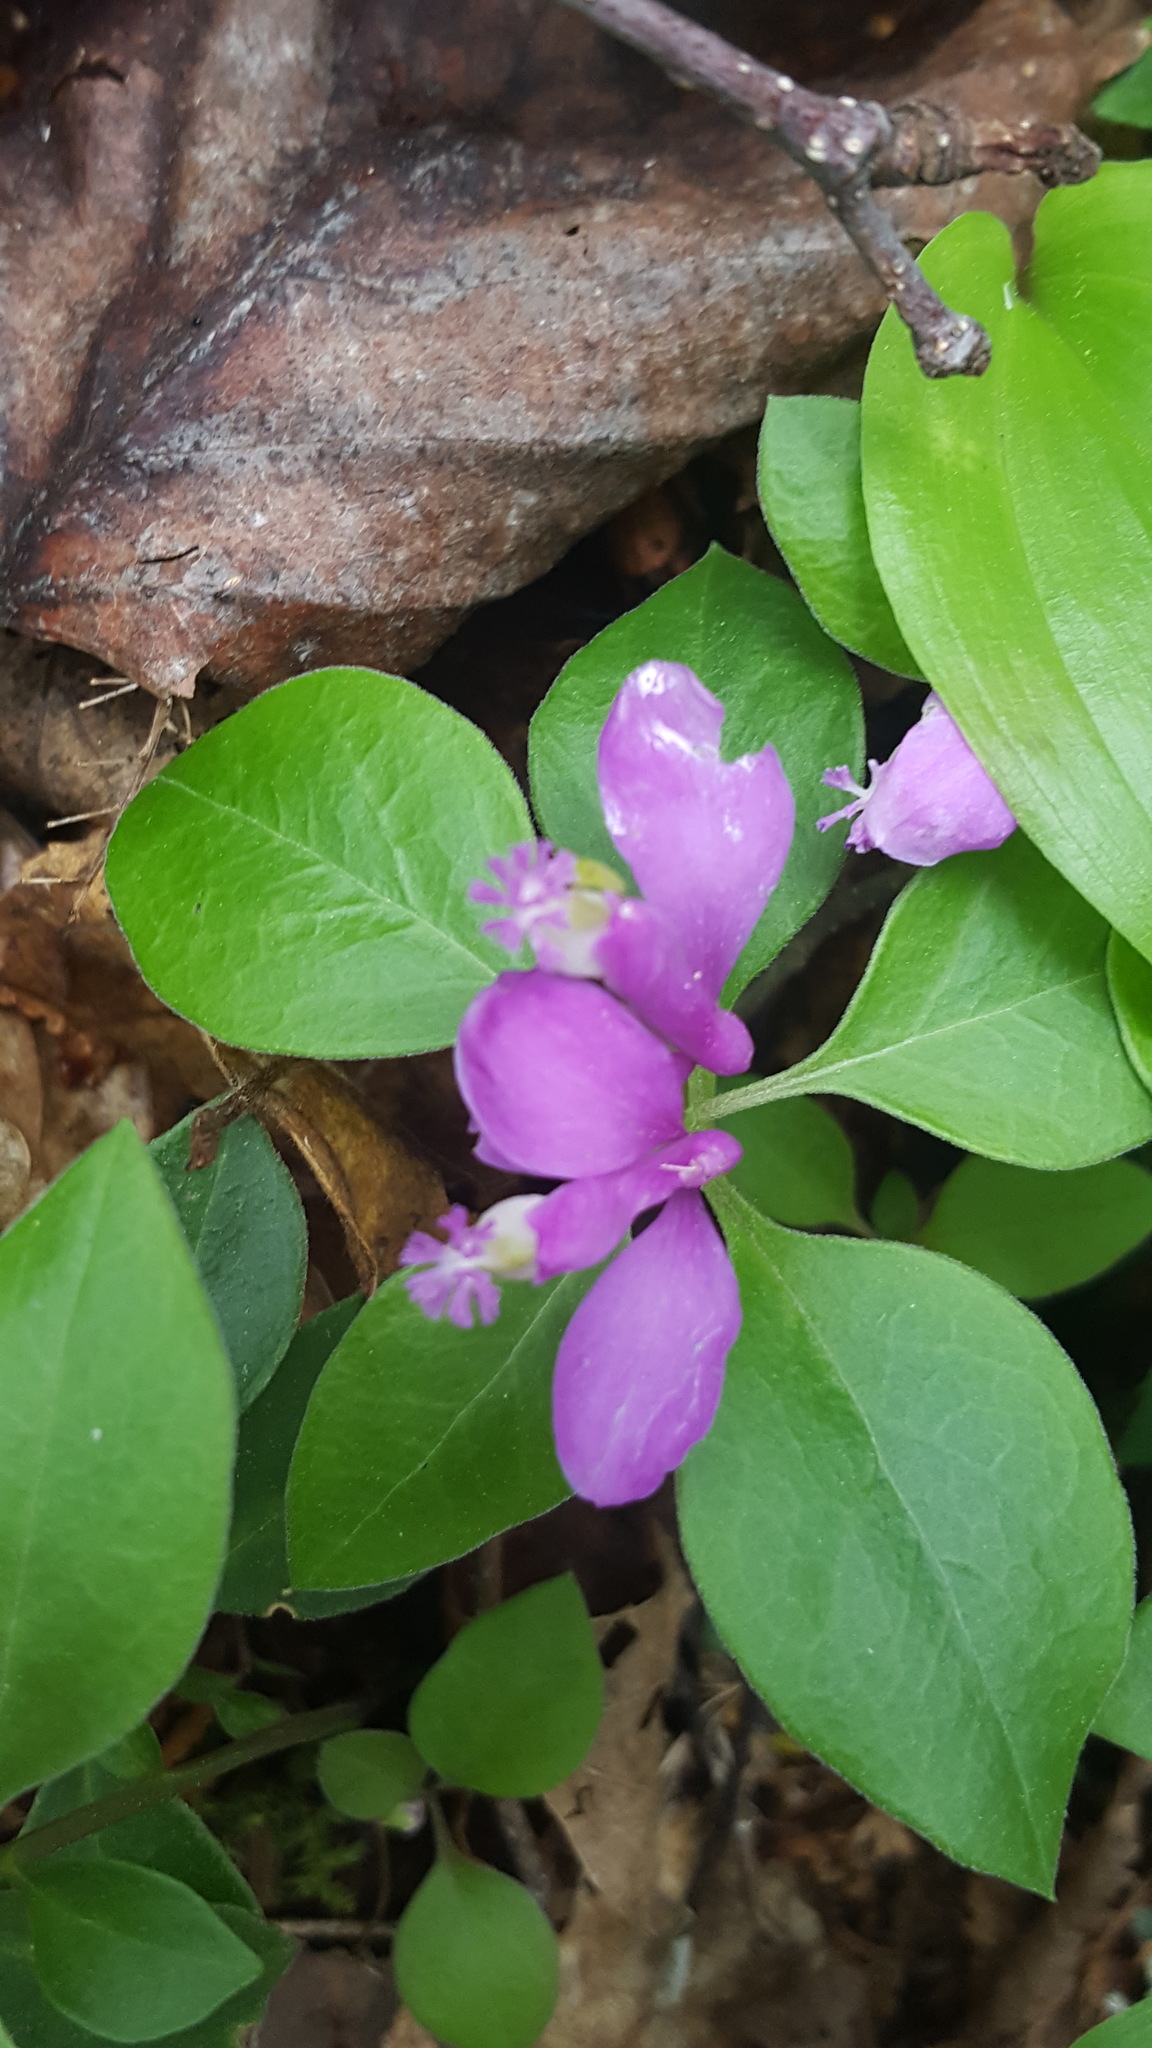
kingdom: Plantae
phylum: Tracheophyta
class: Magnoliopsida
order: Fabales
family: Polygalaceae
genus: Polygaloides
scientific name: Polygaloides paucifolia
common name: Bird-on-the-wing
